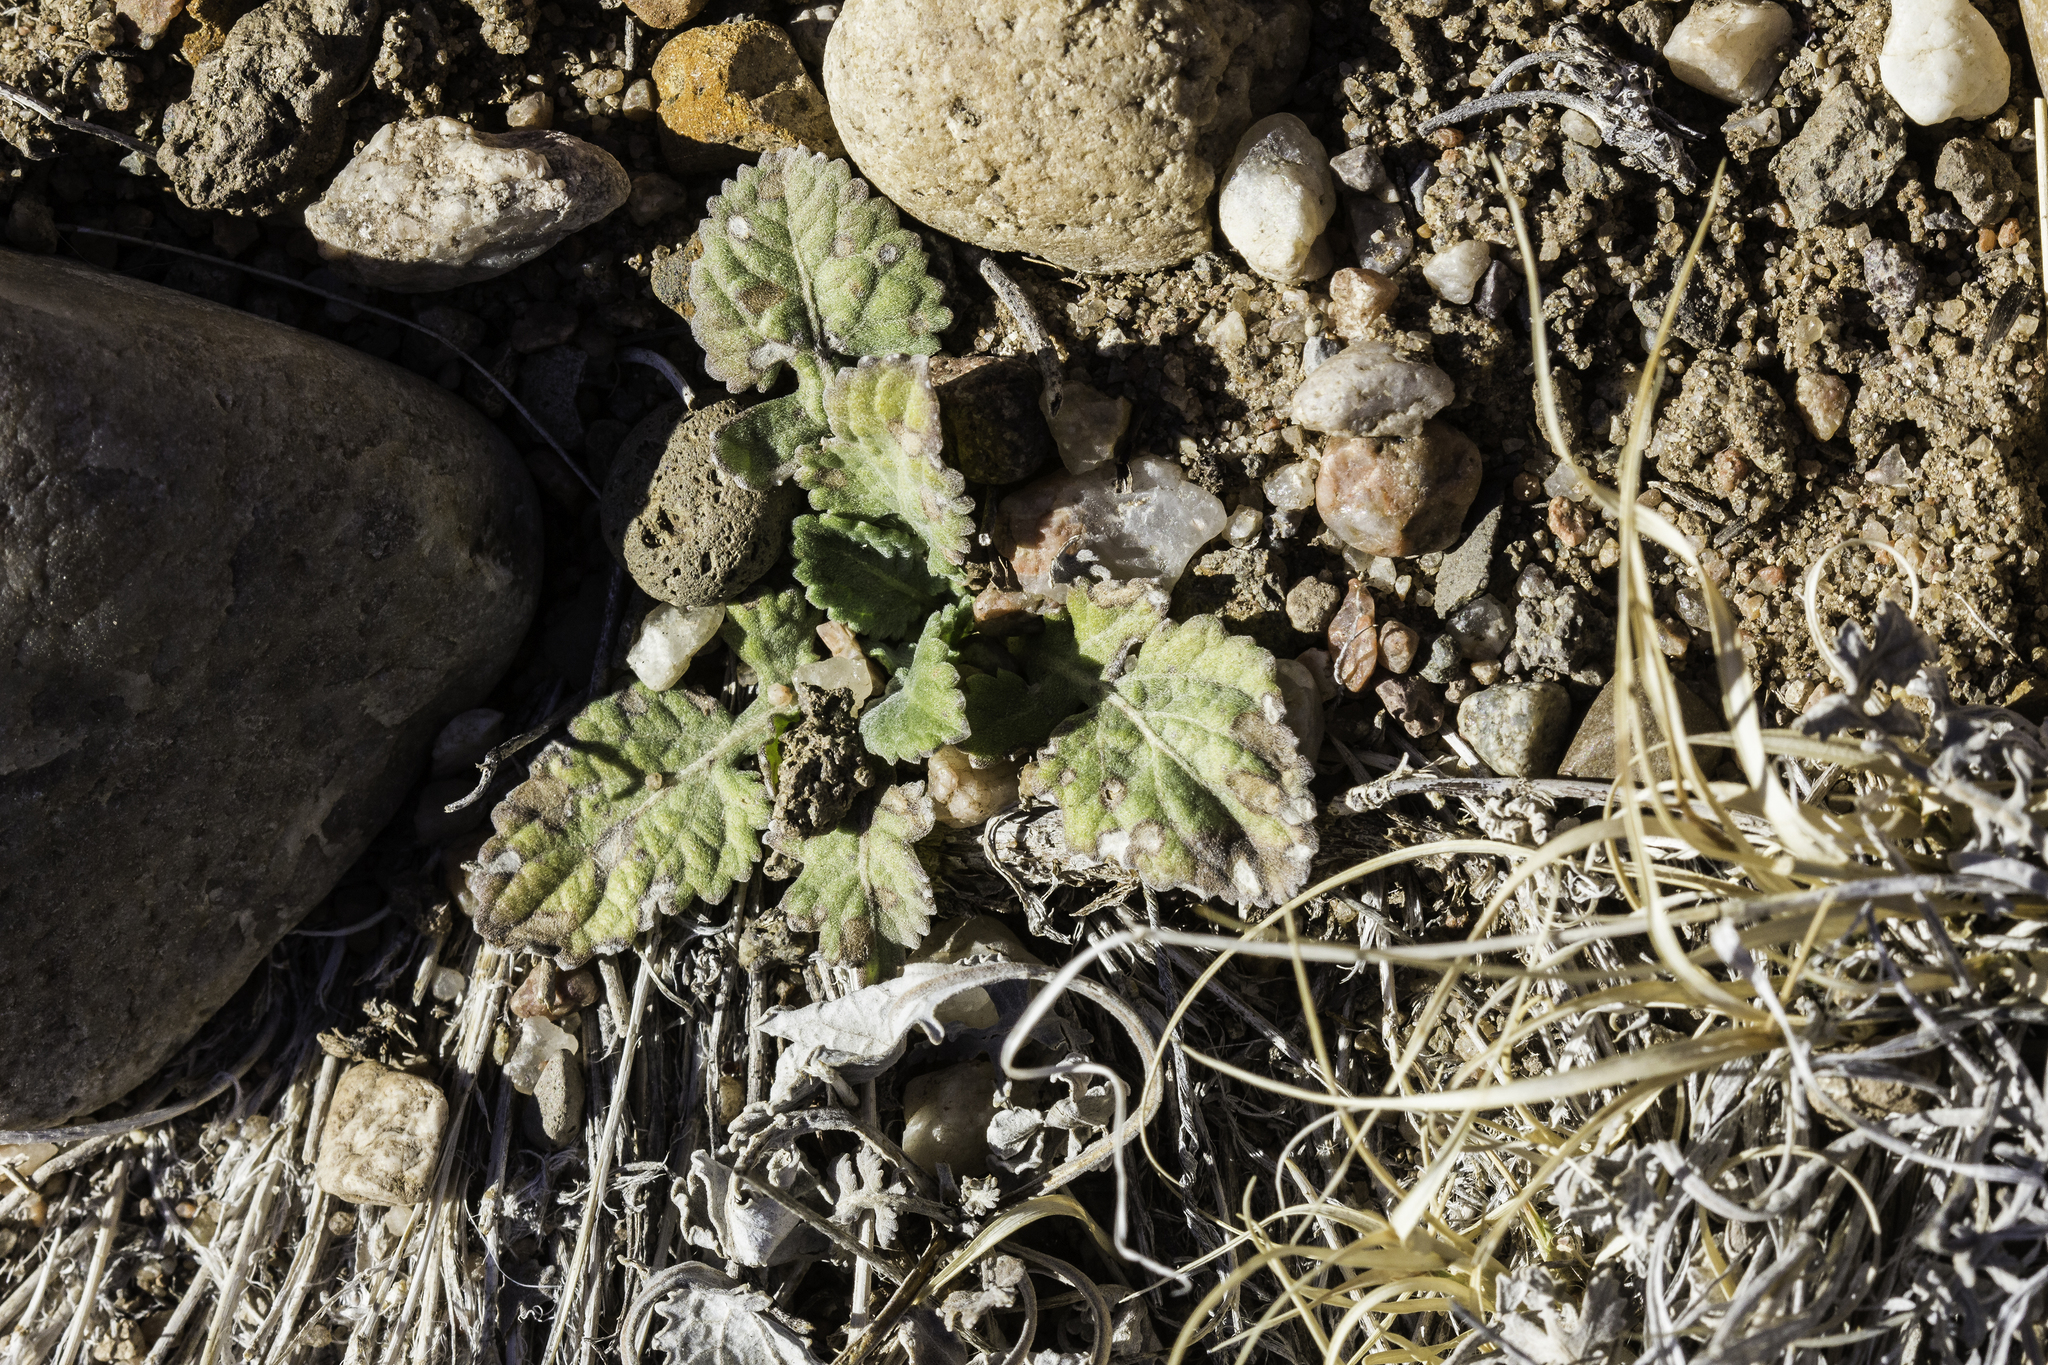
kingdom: Plantae
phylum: Tracheophyta
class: Magnoliopsida
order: Asterales
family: Asteraceae
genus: Berlandiera
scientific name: Berlandiera lyrata
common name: Chocolate-flower
